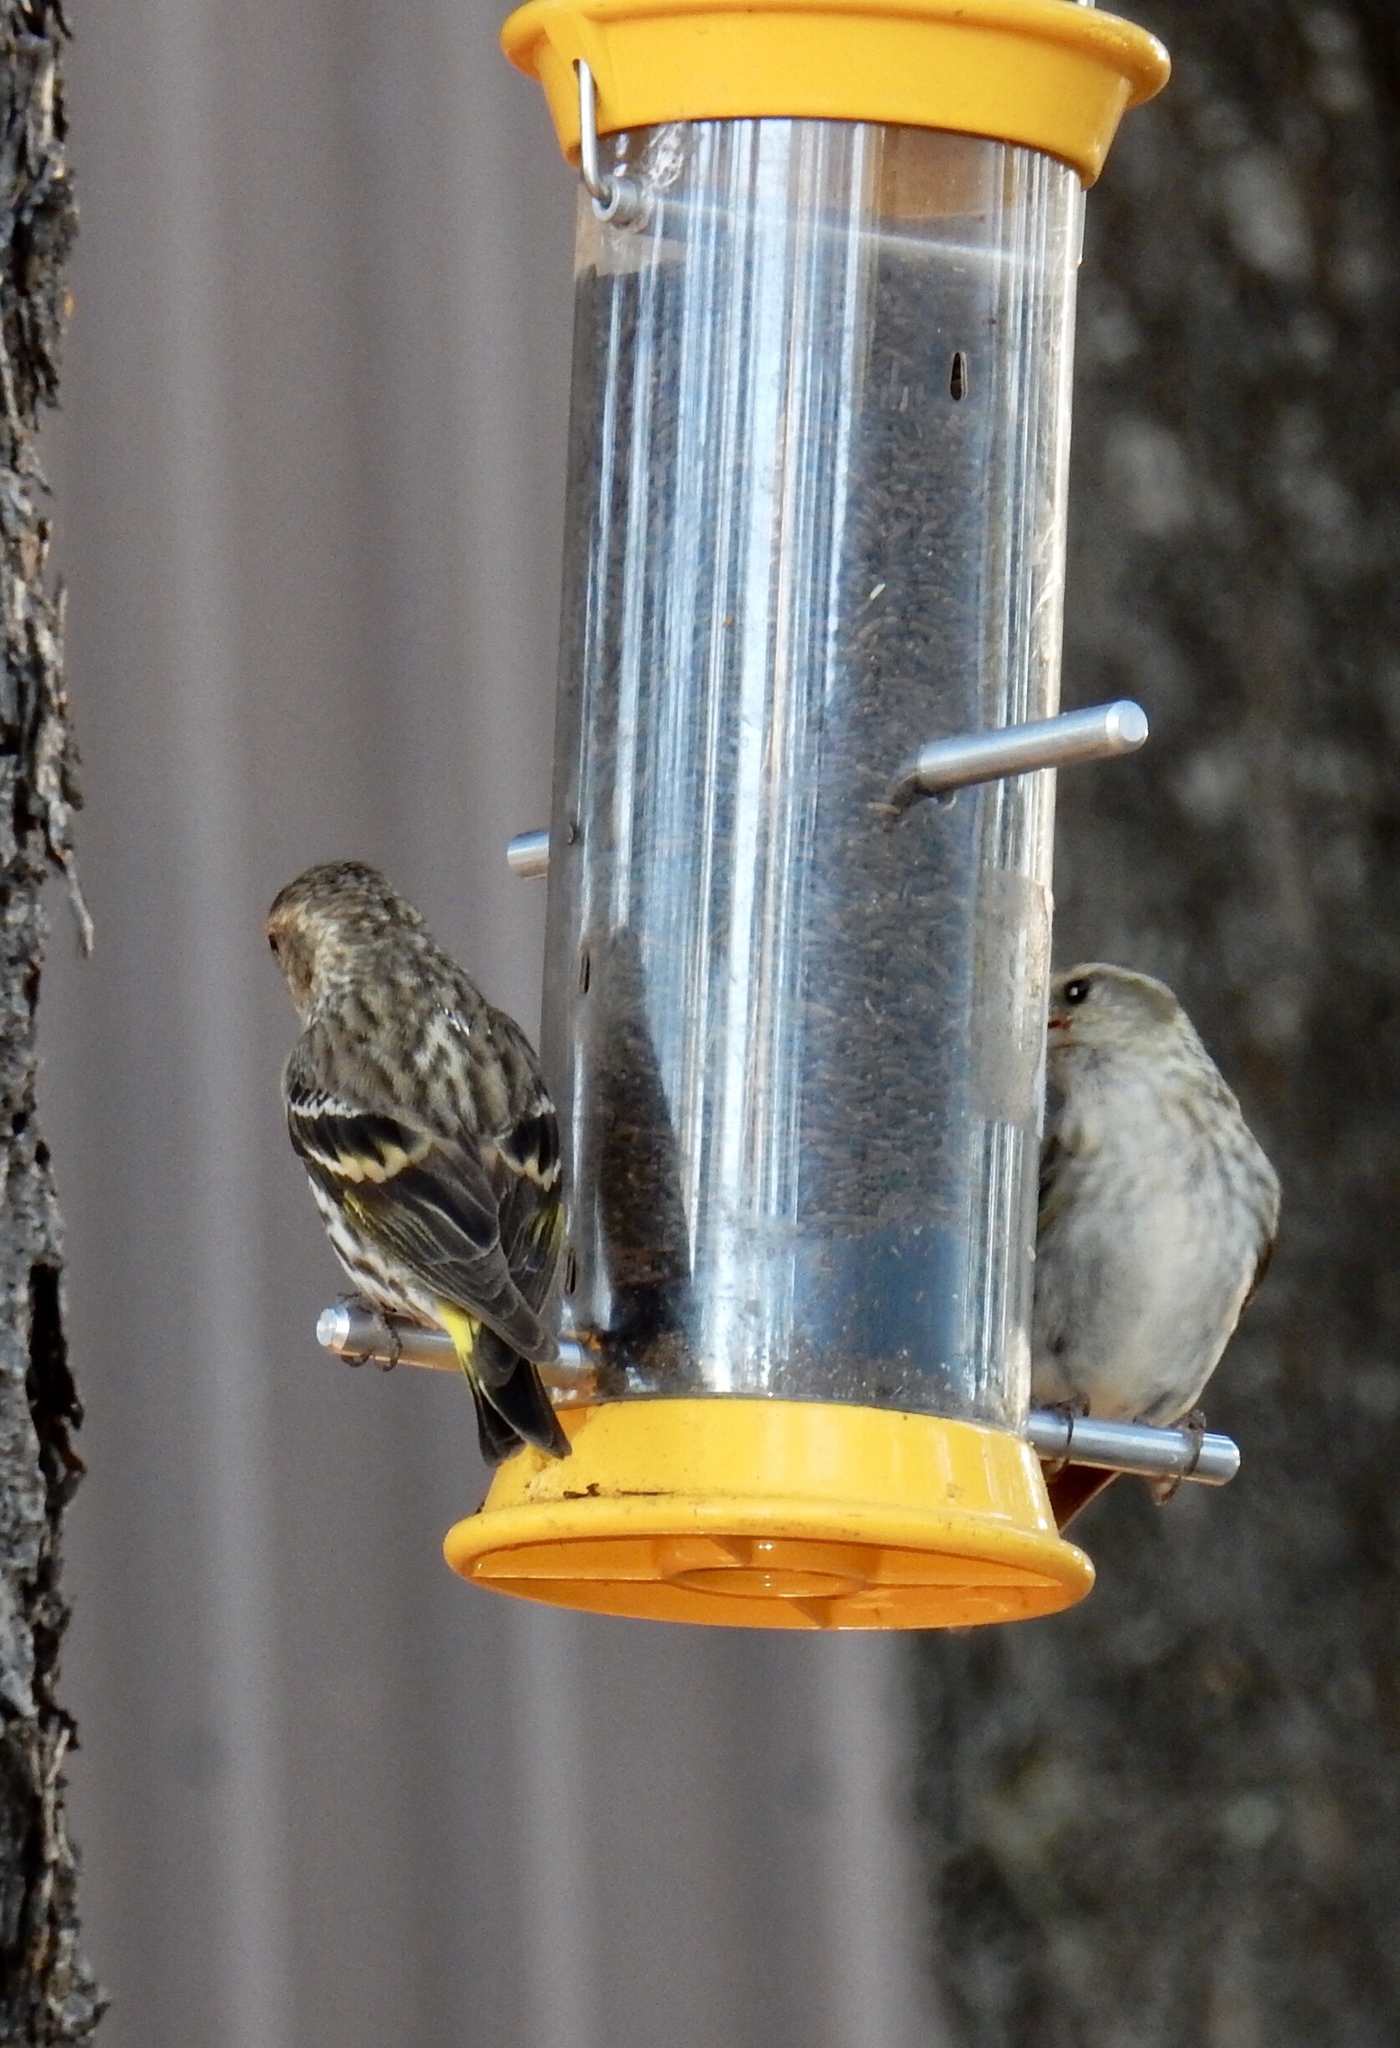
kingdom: Animalia
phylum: Chordata
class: Aves
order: Passeriformes
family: Fringillidae
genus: Spinus
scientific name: Spinus pinus
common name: Pine siskin
